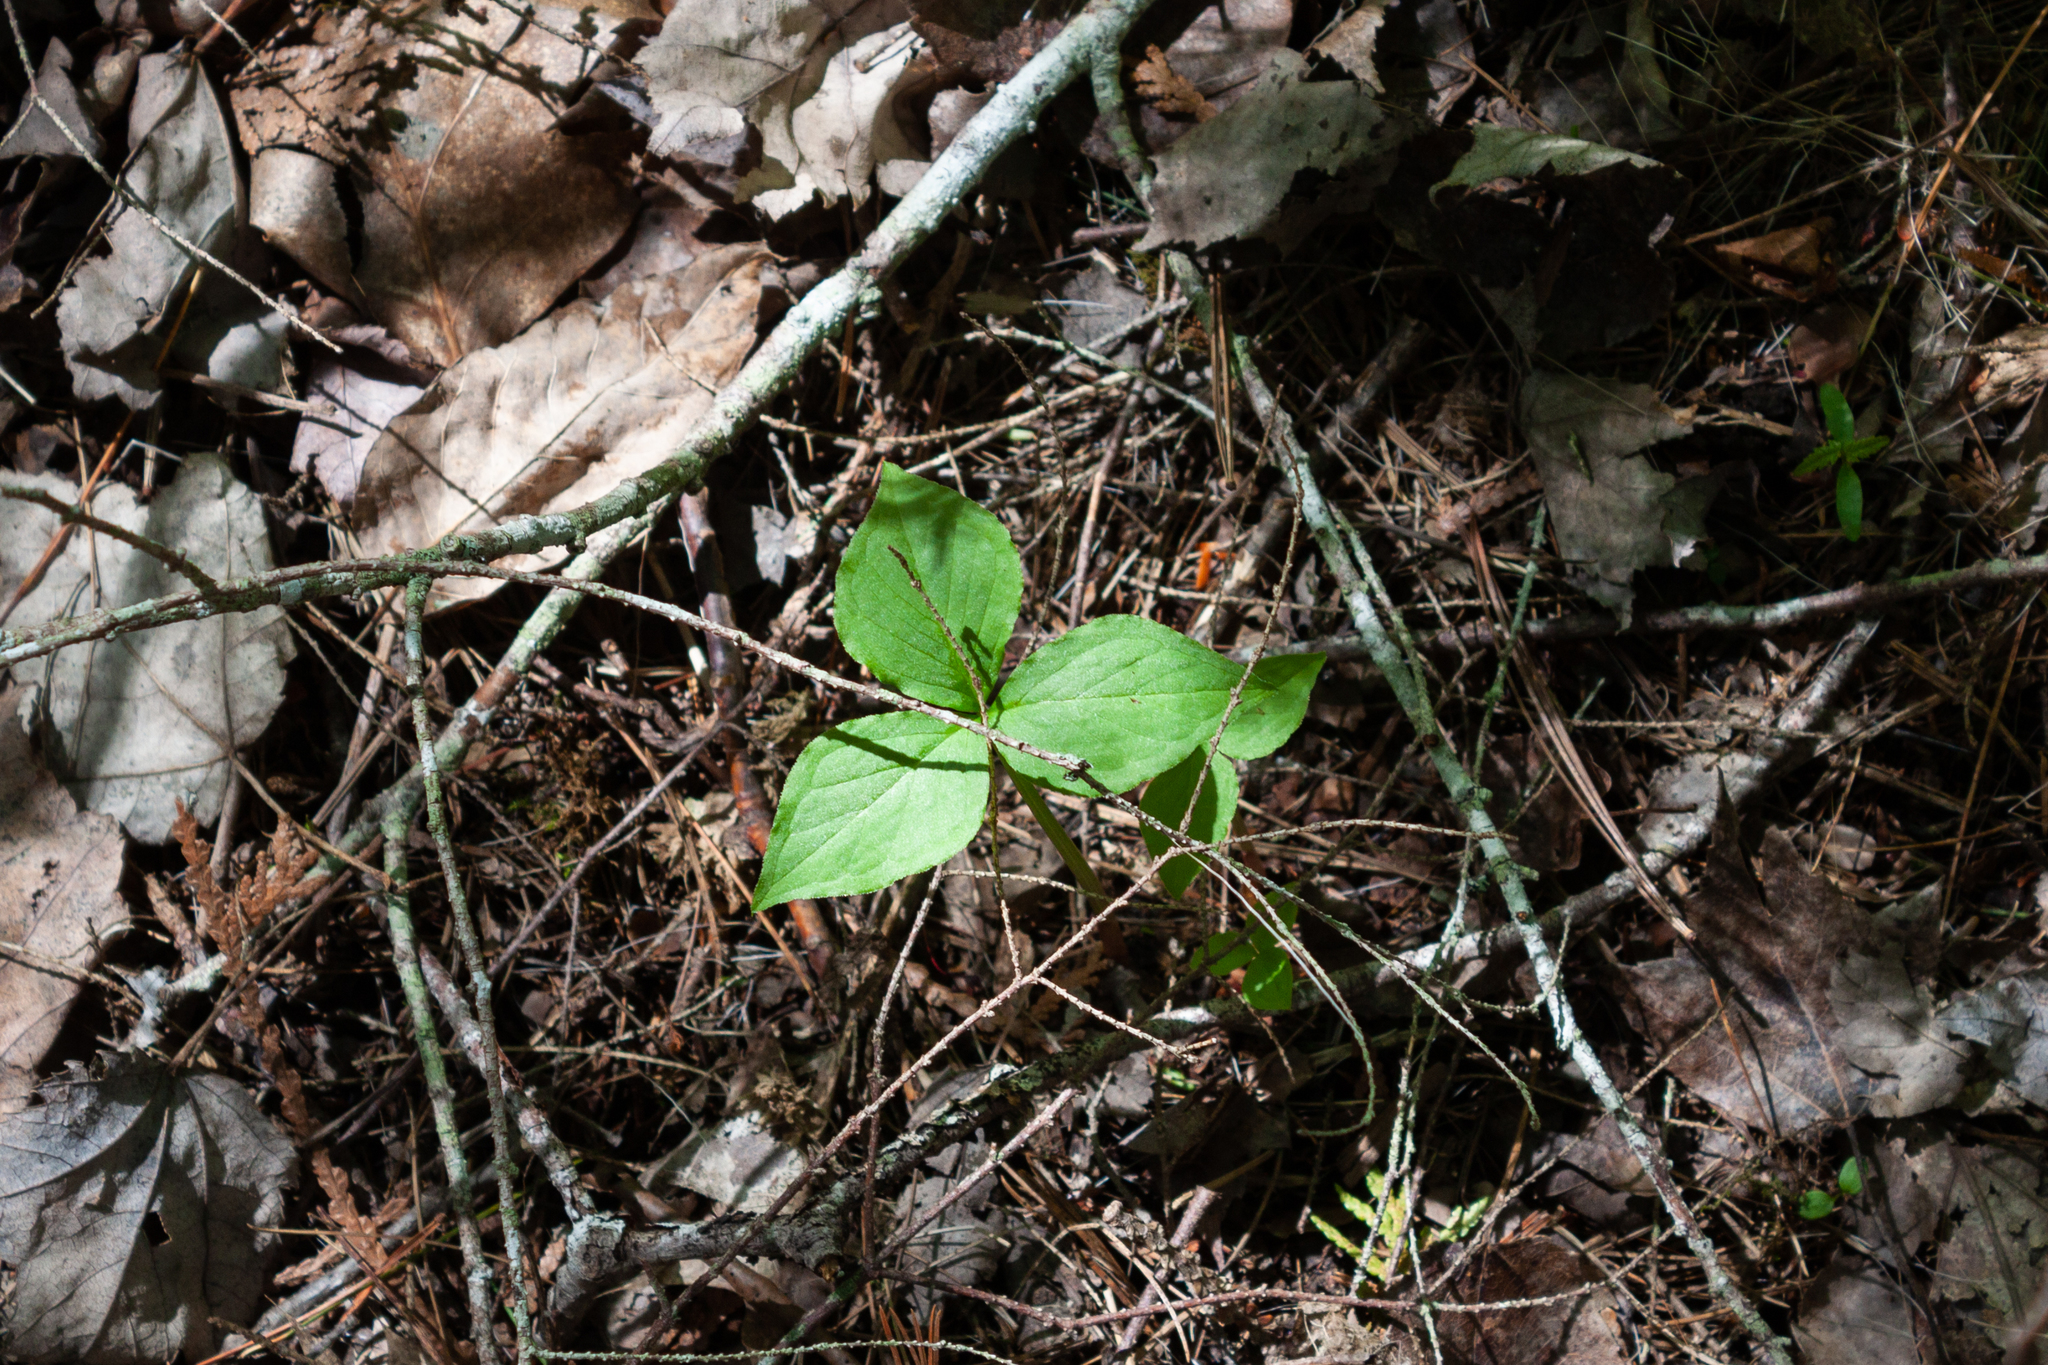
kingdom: Plantae
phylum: Tracheophyta
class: Liliopsida
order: Alismatales
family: Araceae
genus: Arisaema
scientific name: Arisaema triphyllum
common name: Jack-in-the-pulpit
